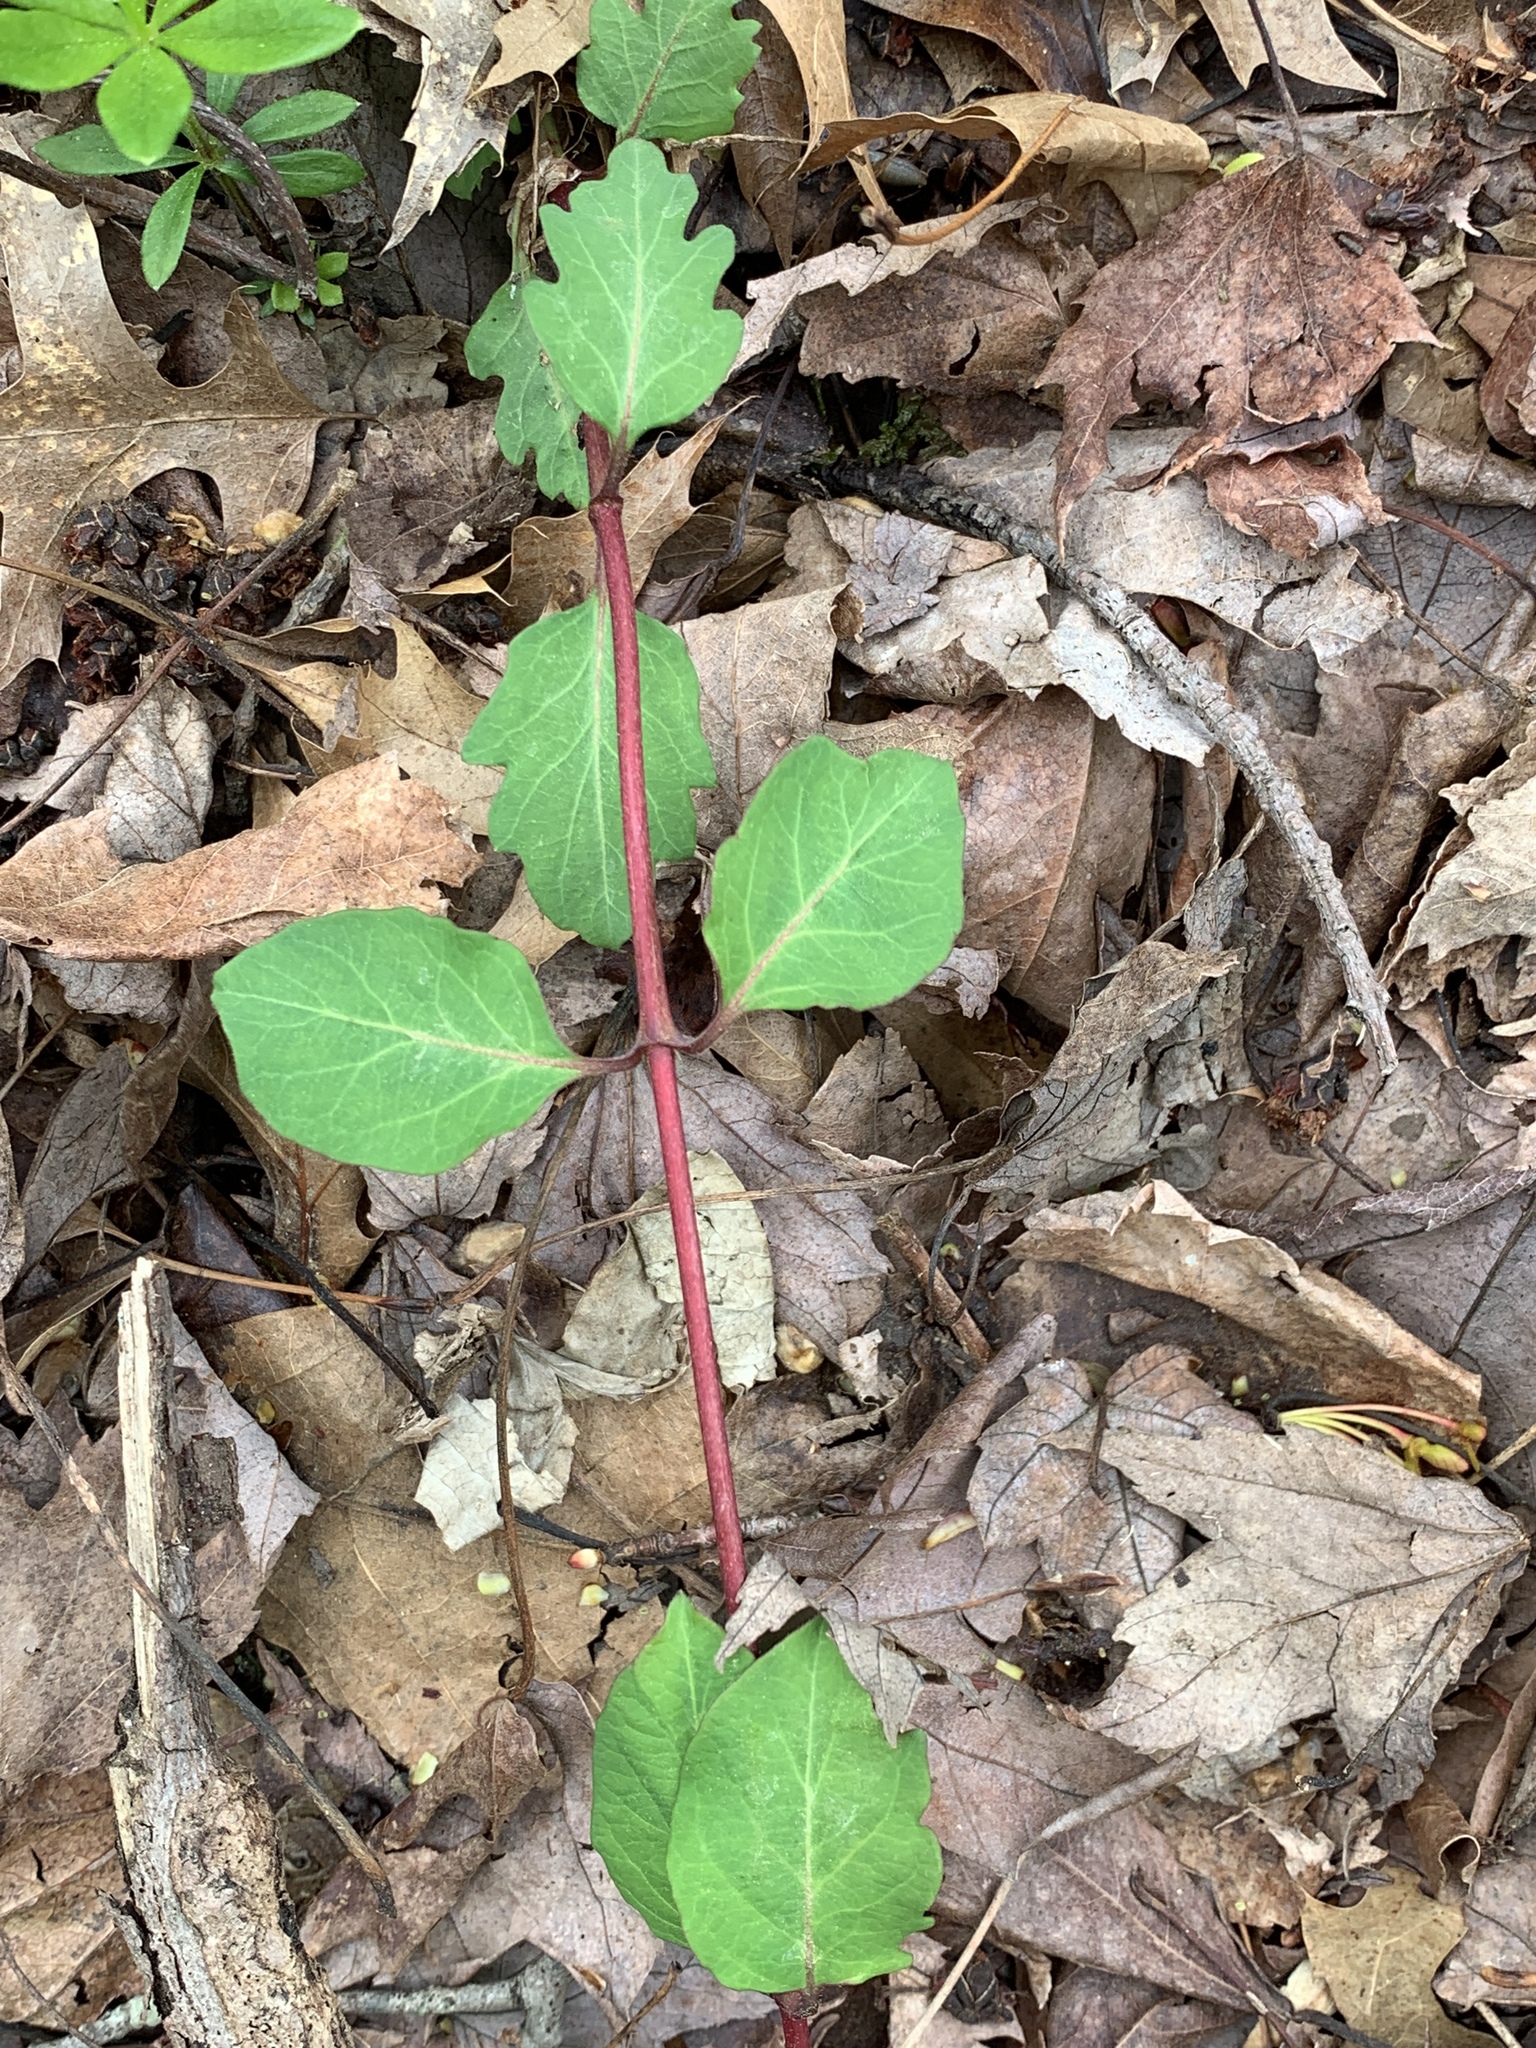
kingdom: Plantae
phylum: Tracheophyta
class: Magnoliopsida
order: Dipsacales
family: Caprifoliaceae
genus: Lonicera
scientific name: Lonicera japonica
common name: Japanese honeysuckle
